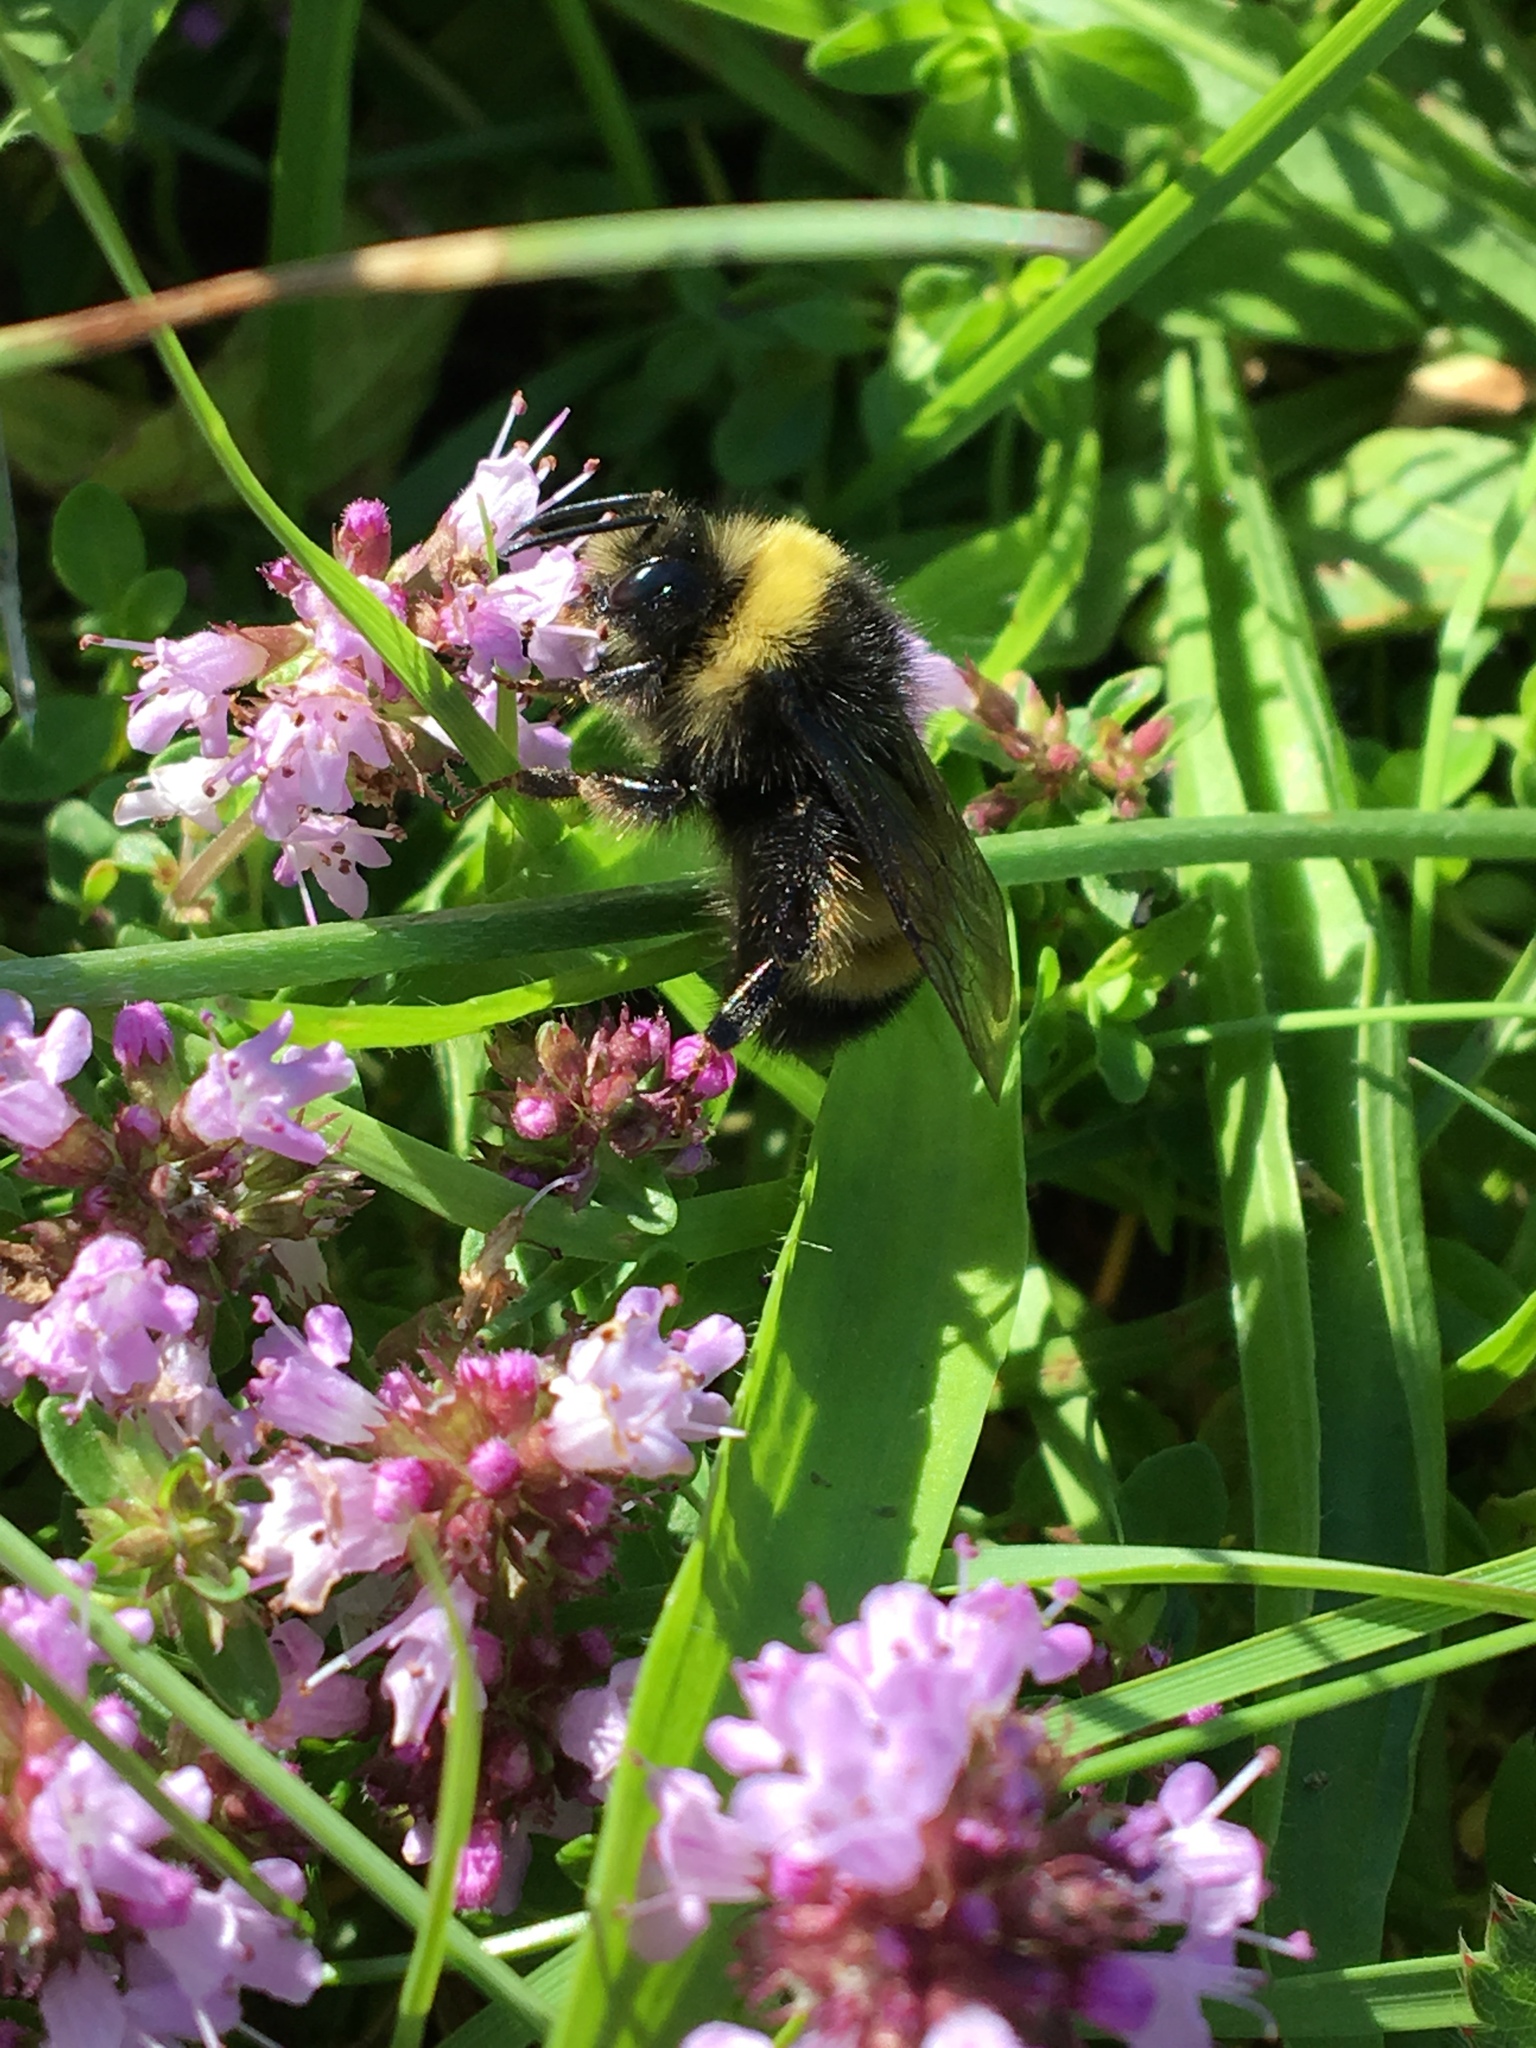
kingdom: Animalia
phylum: Arthropoda
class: Insecta
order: Hymenoptera
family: Apidae
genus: Bombus
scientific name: Bombus terricola
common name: Yellow-banded bumble bee
